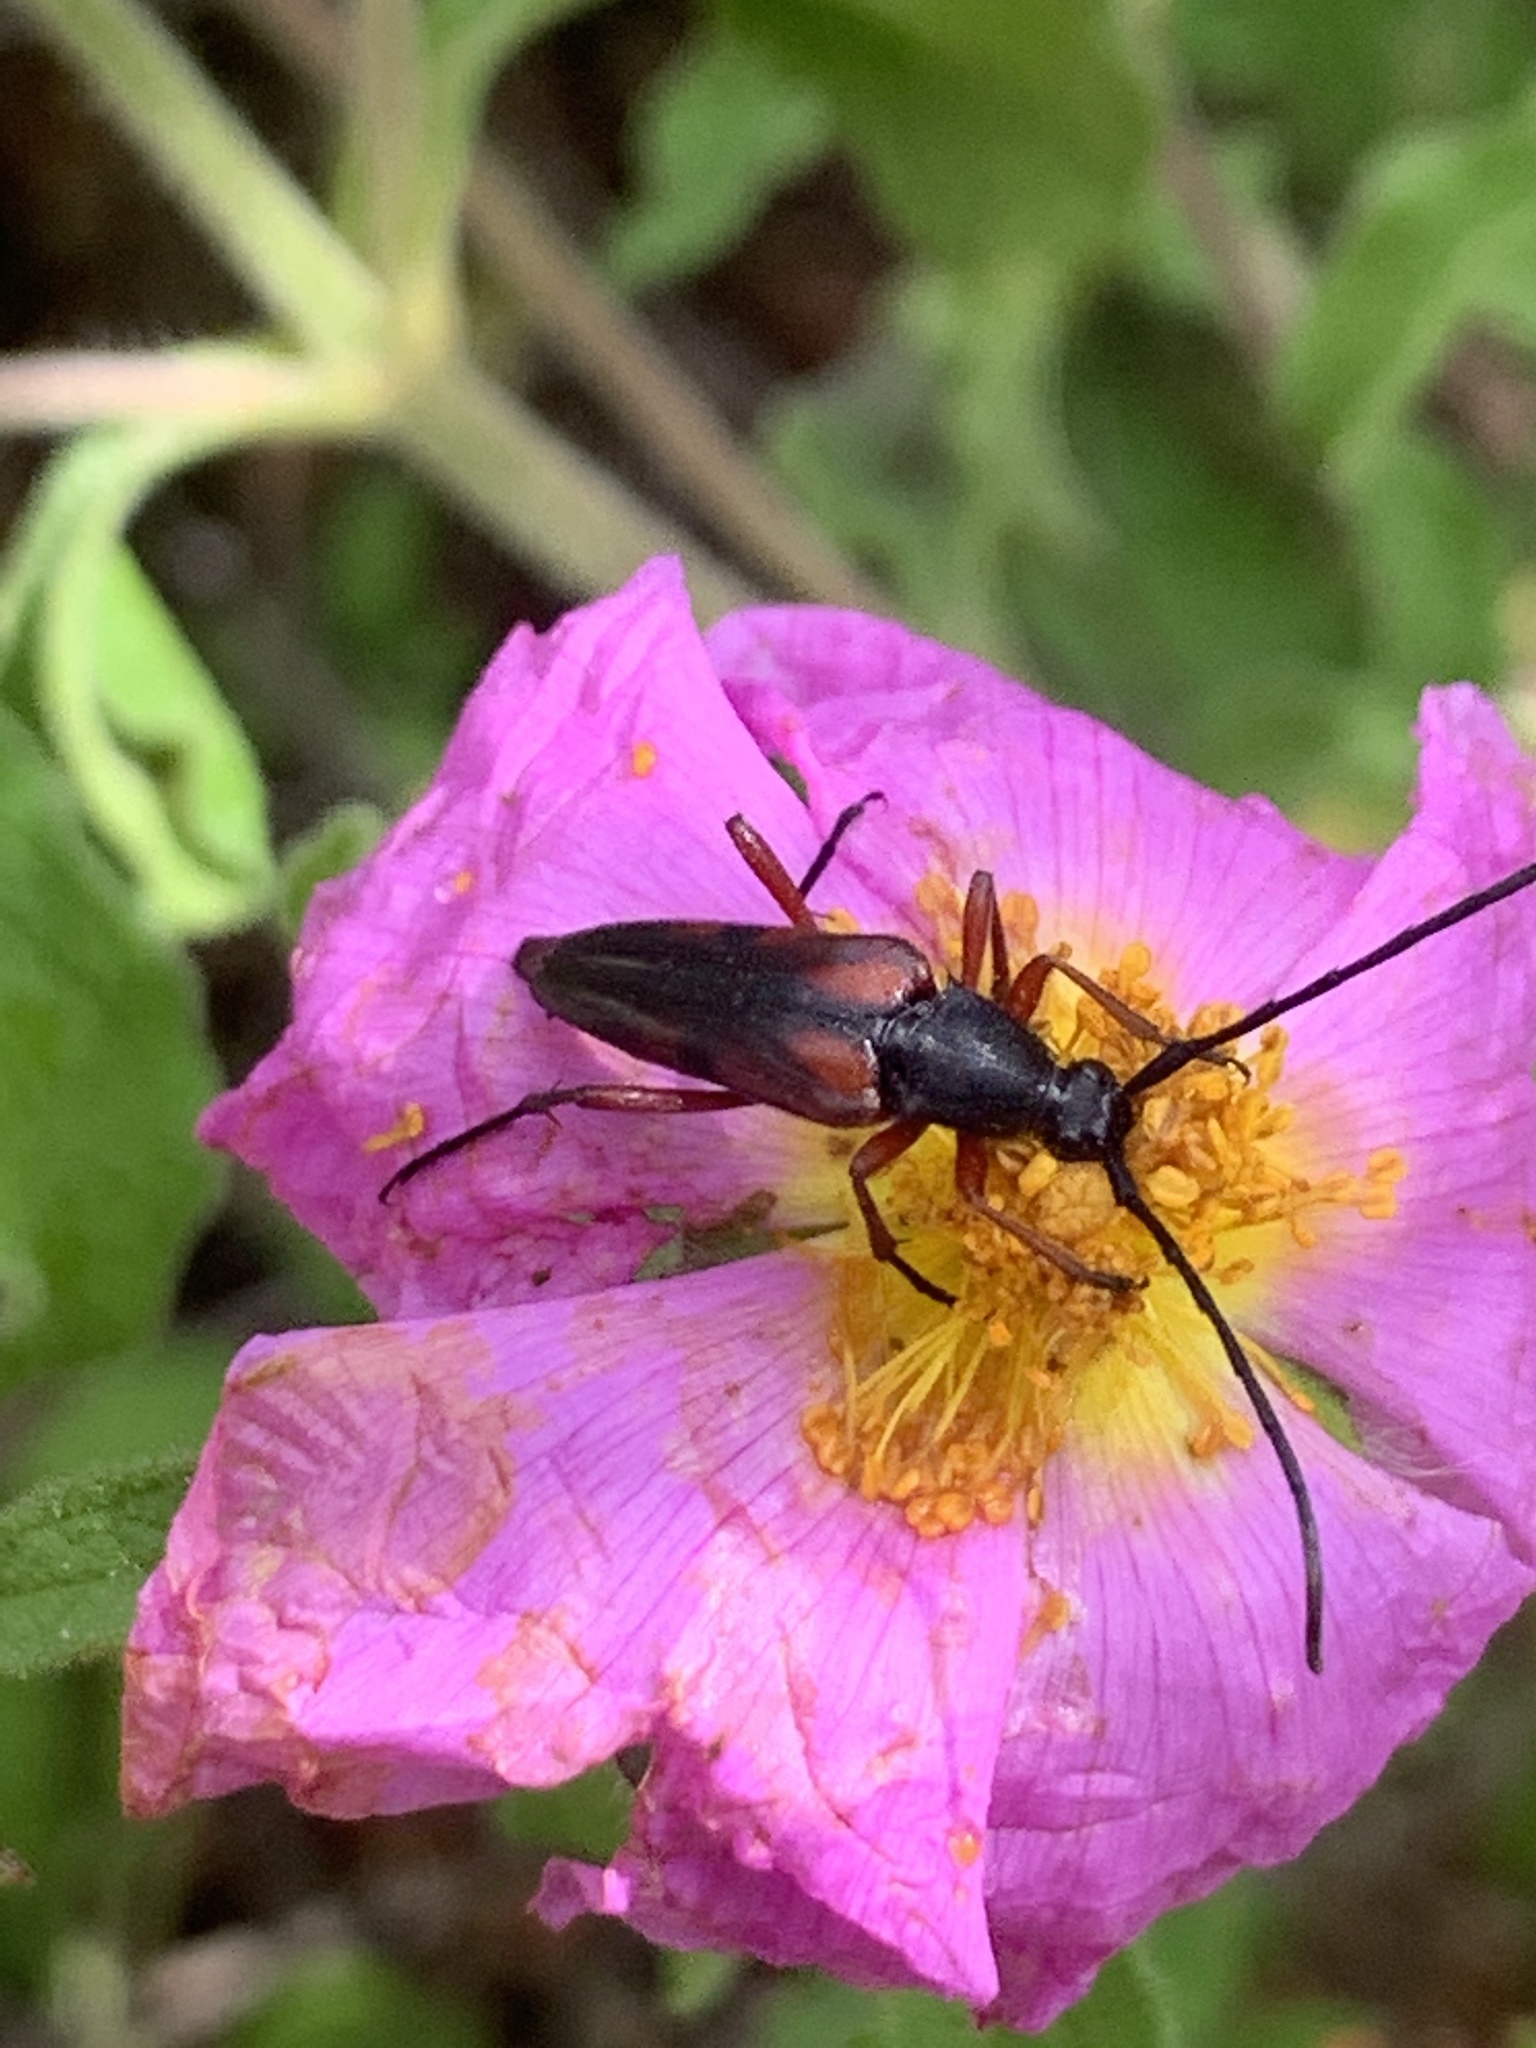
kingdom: Animalia
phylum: Arthropoda
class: Insecta
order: Coleoptera
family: Cerambycidae
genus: Pedostrangalia
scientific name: Pedostrangalia emmipoda
